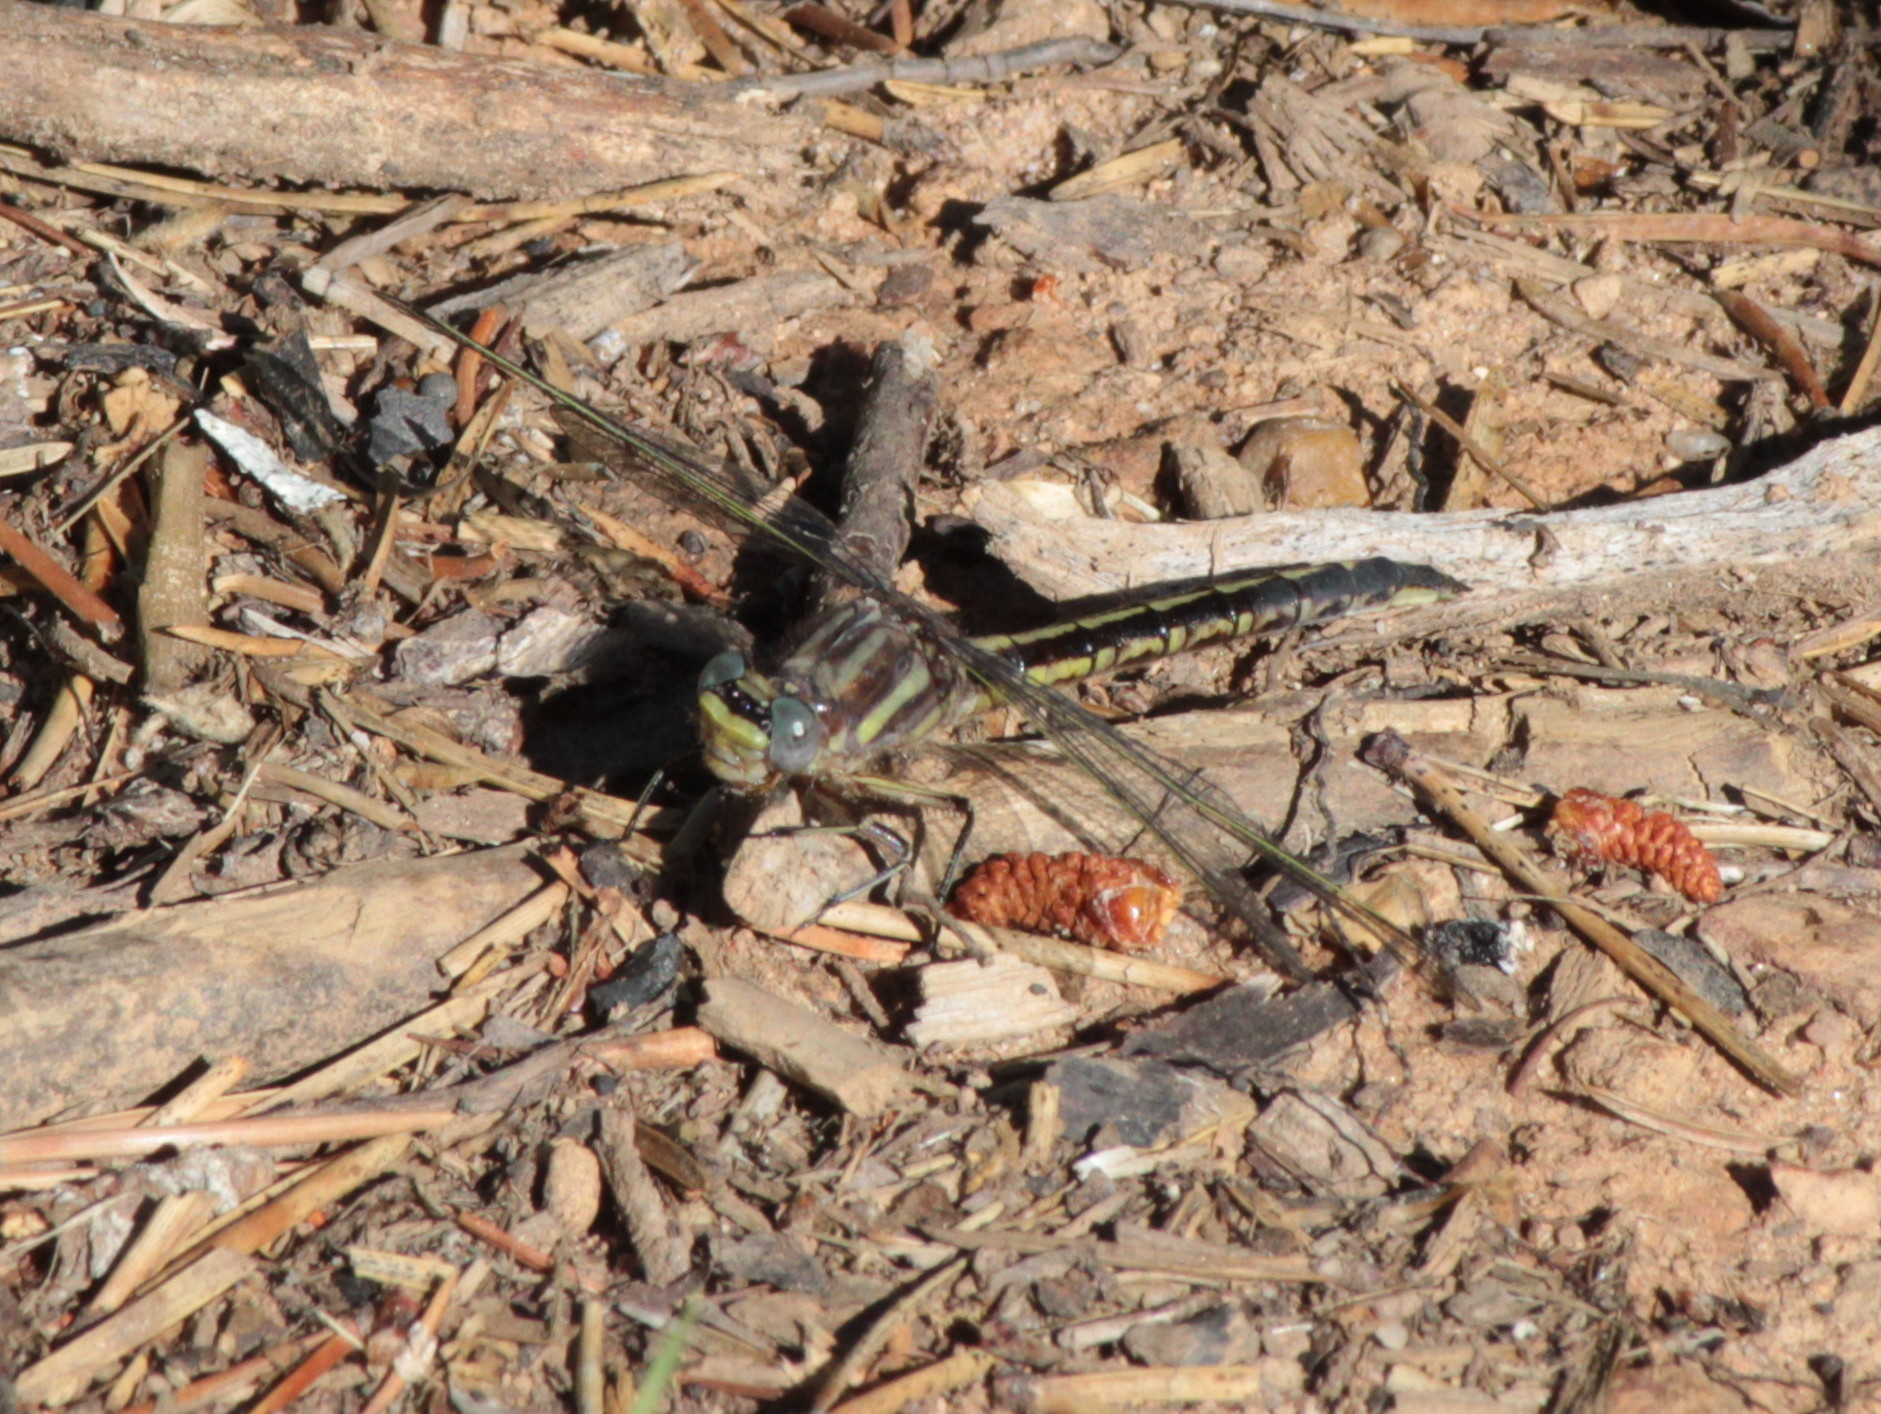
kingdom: Animalia
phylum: Arthropoda
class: Insecta
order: Odonata
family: Gomphidae
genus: Phanogomphus
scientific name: Phanogomphus spicatus
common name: Dusky clubtail
